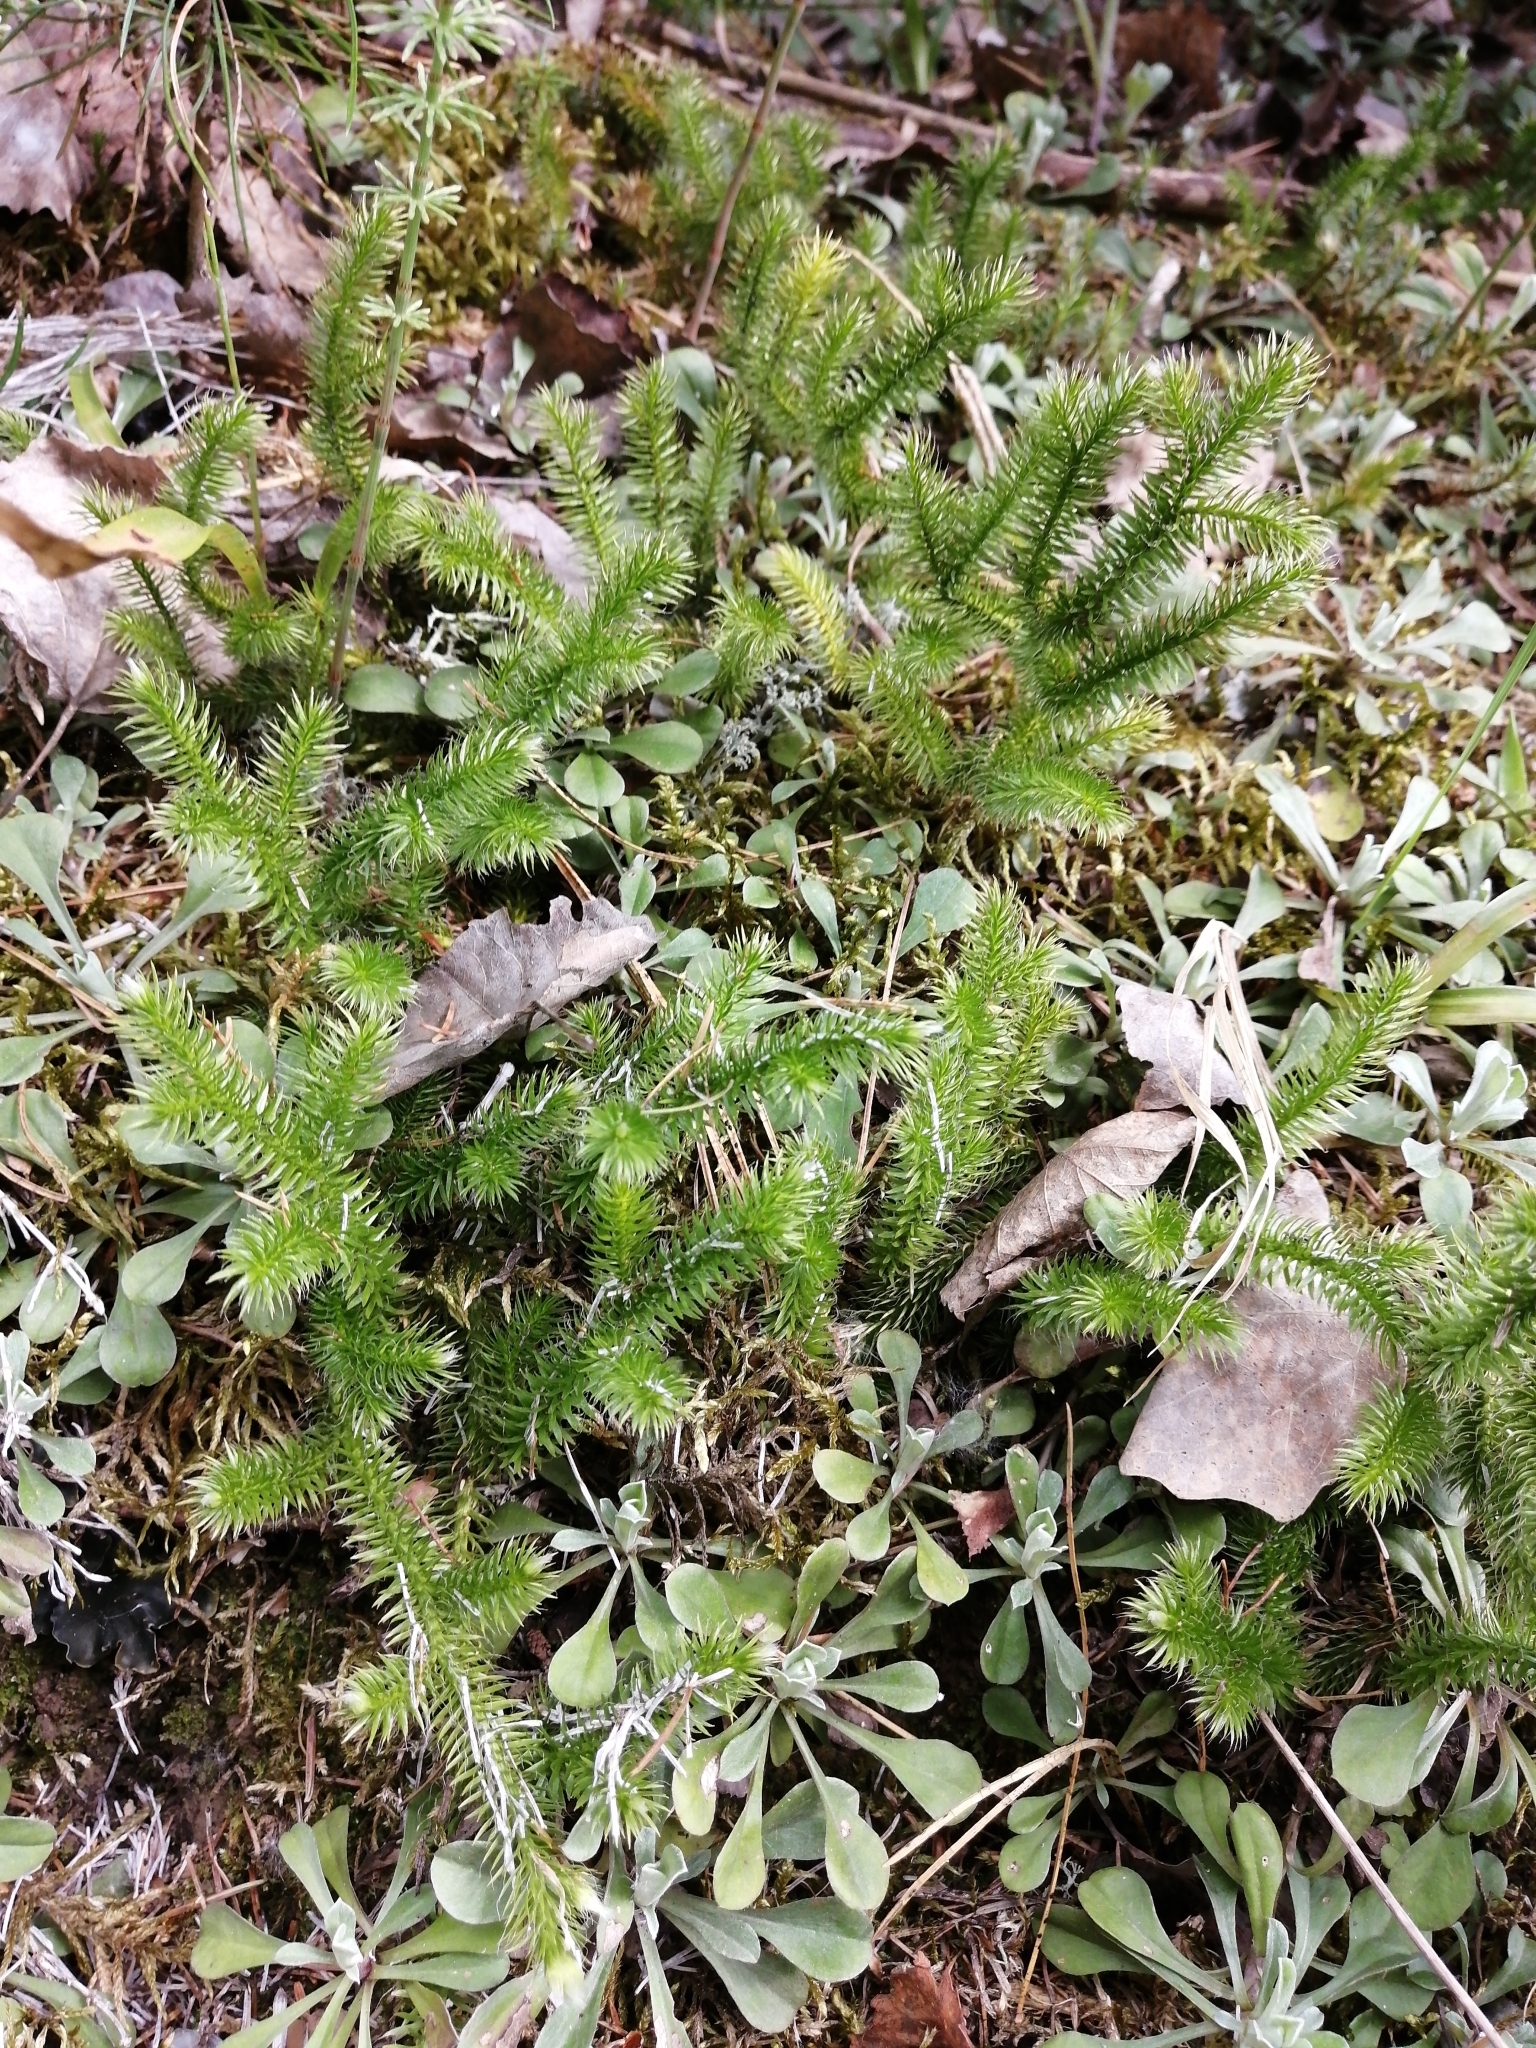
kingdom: Plantae
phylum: Tracheophyta
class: Lycopodiopsida
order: Lycopodiales
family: Lycopodiaceae
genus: Lycopodium
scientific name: Lycopodium clavatum
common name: Stag's-horn clubmoss
